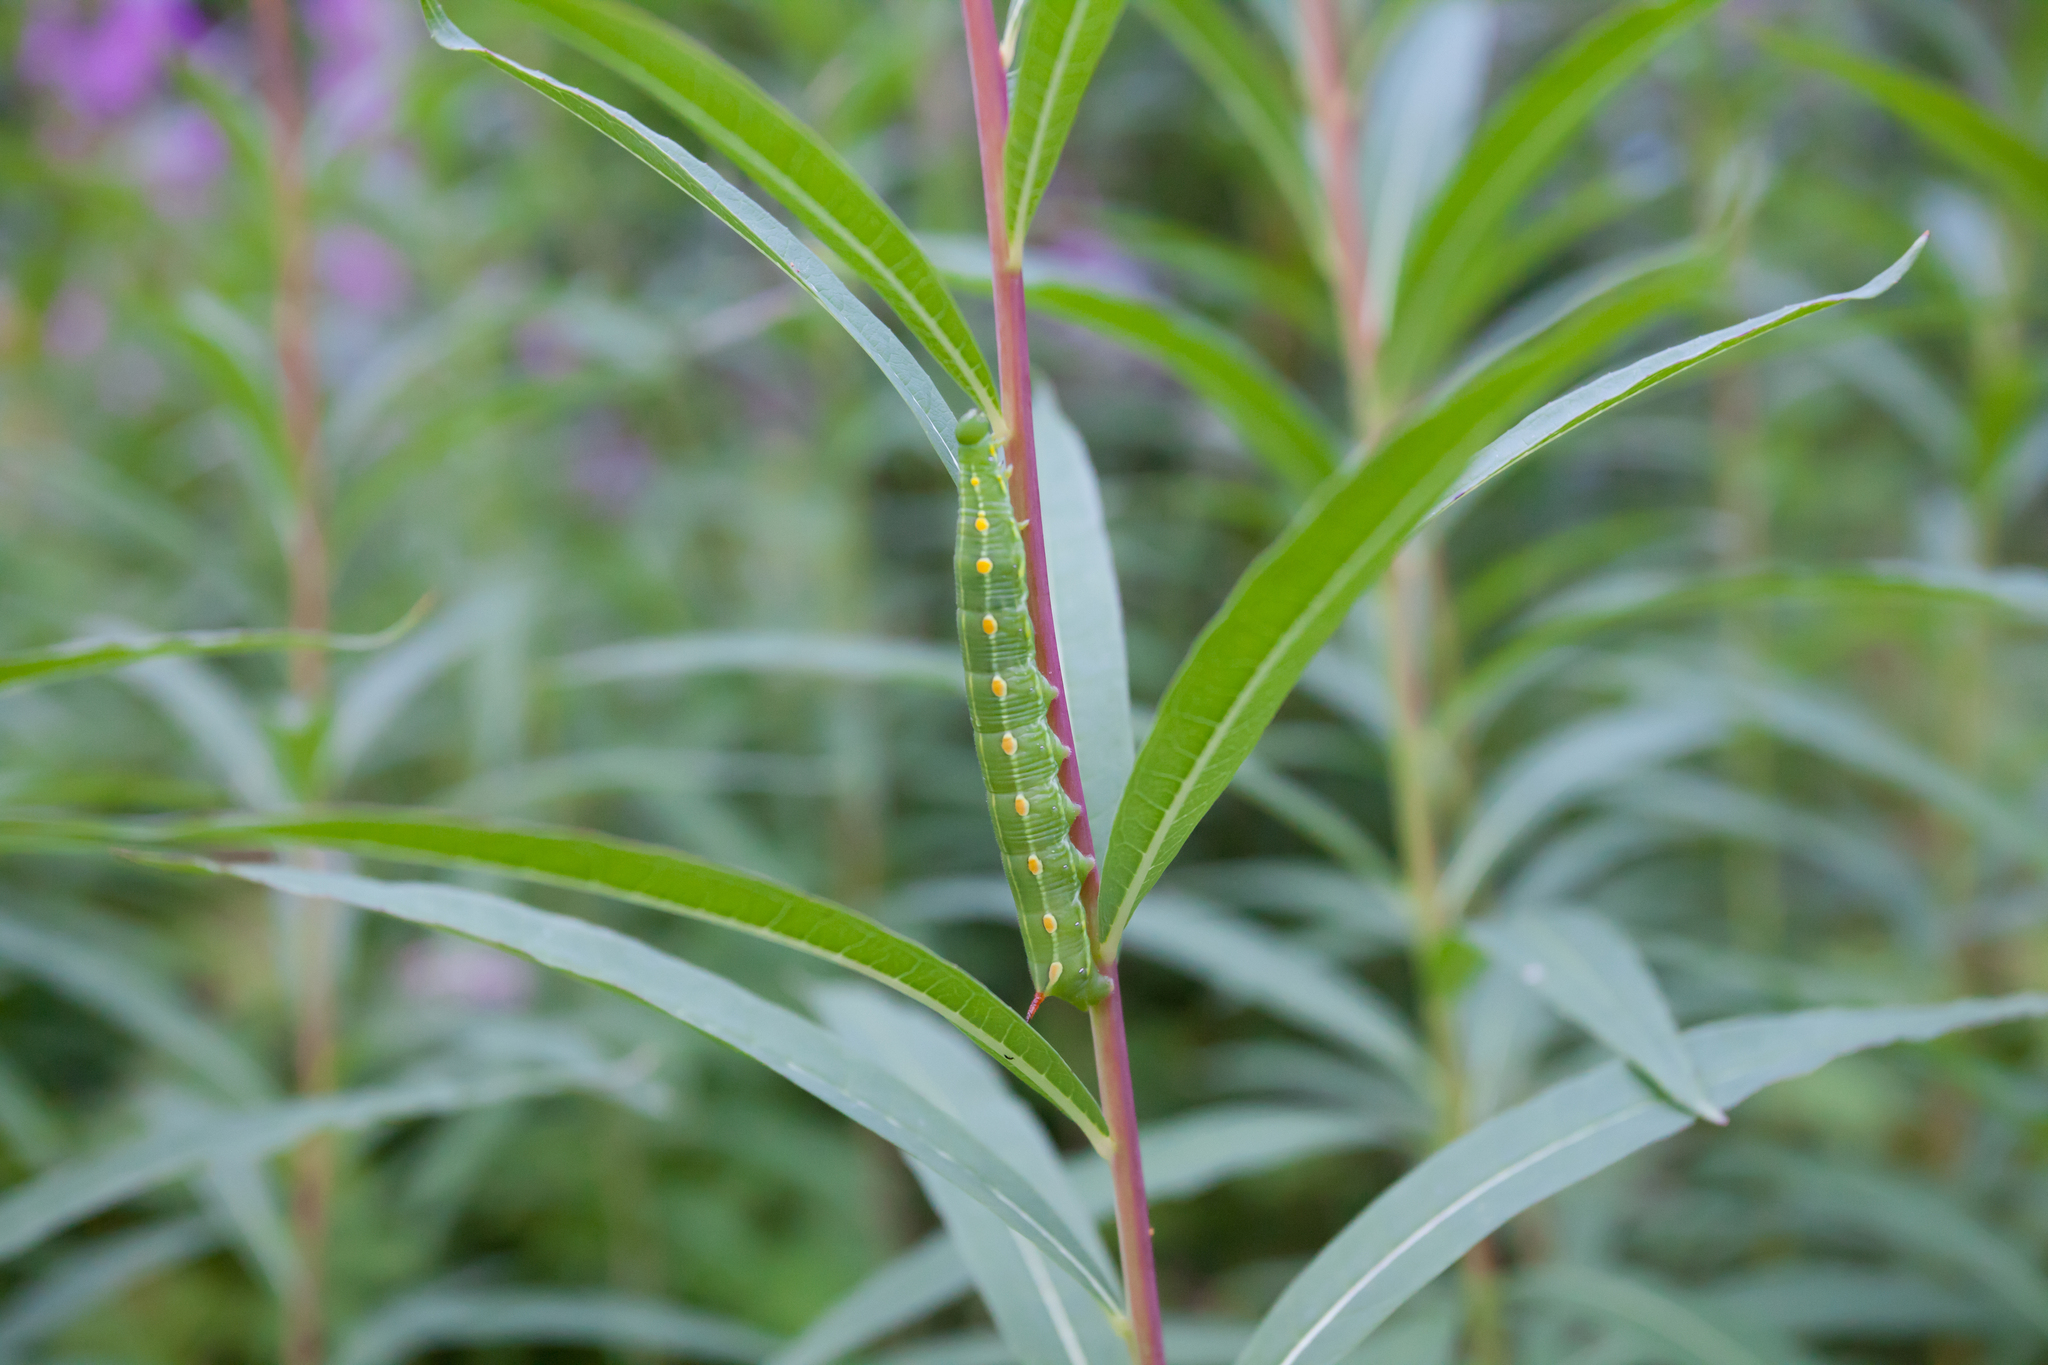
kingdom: Animalia
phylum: Arthropoda
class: Insecta
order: Lepidoptera
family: Sphingidae
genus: Hyles
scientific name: Hyles gallii
